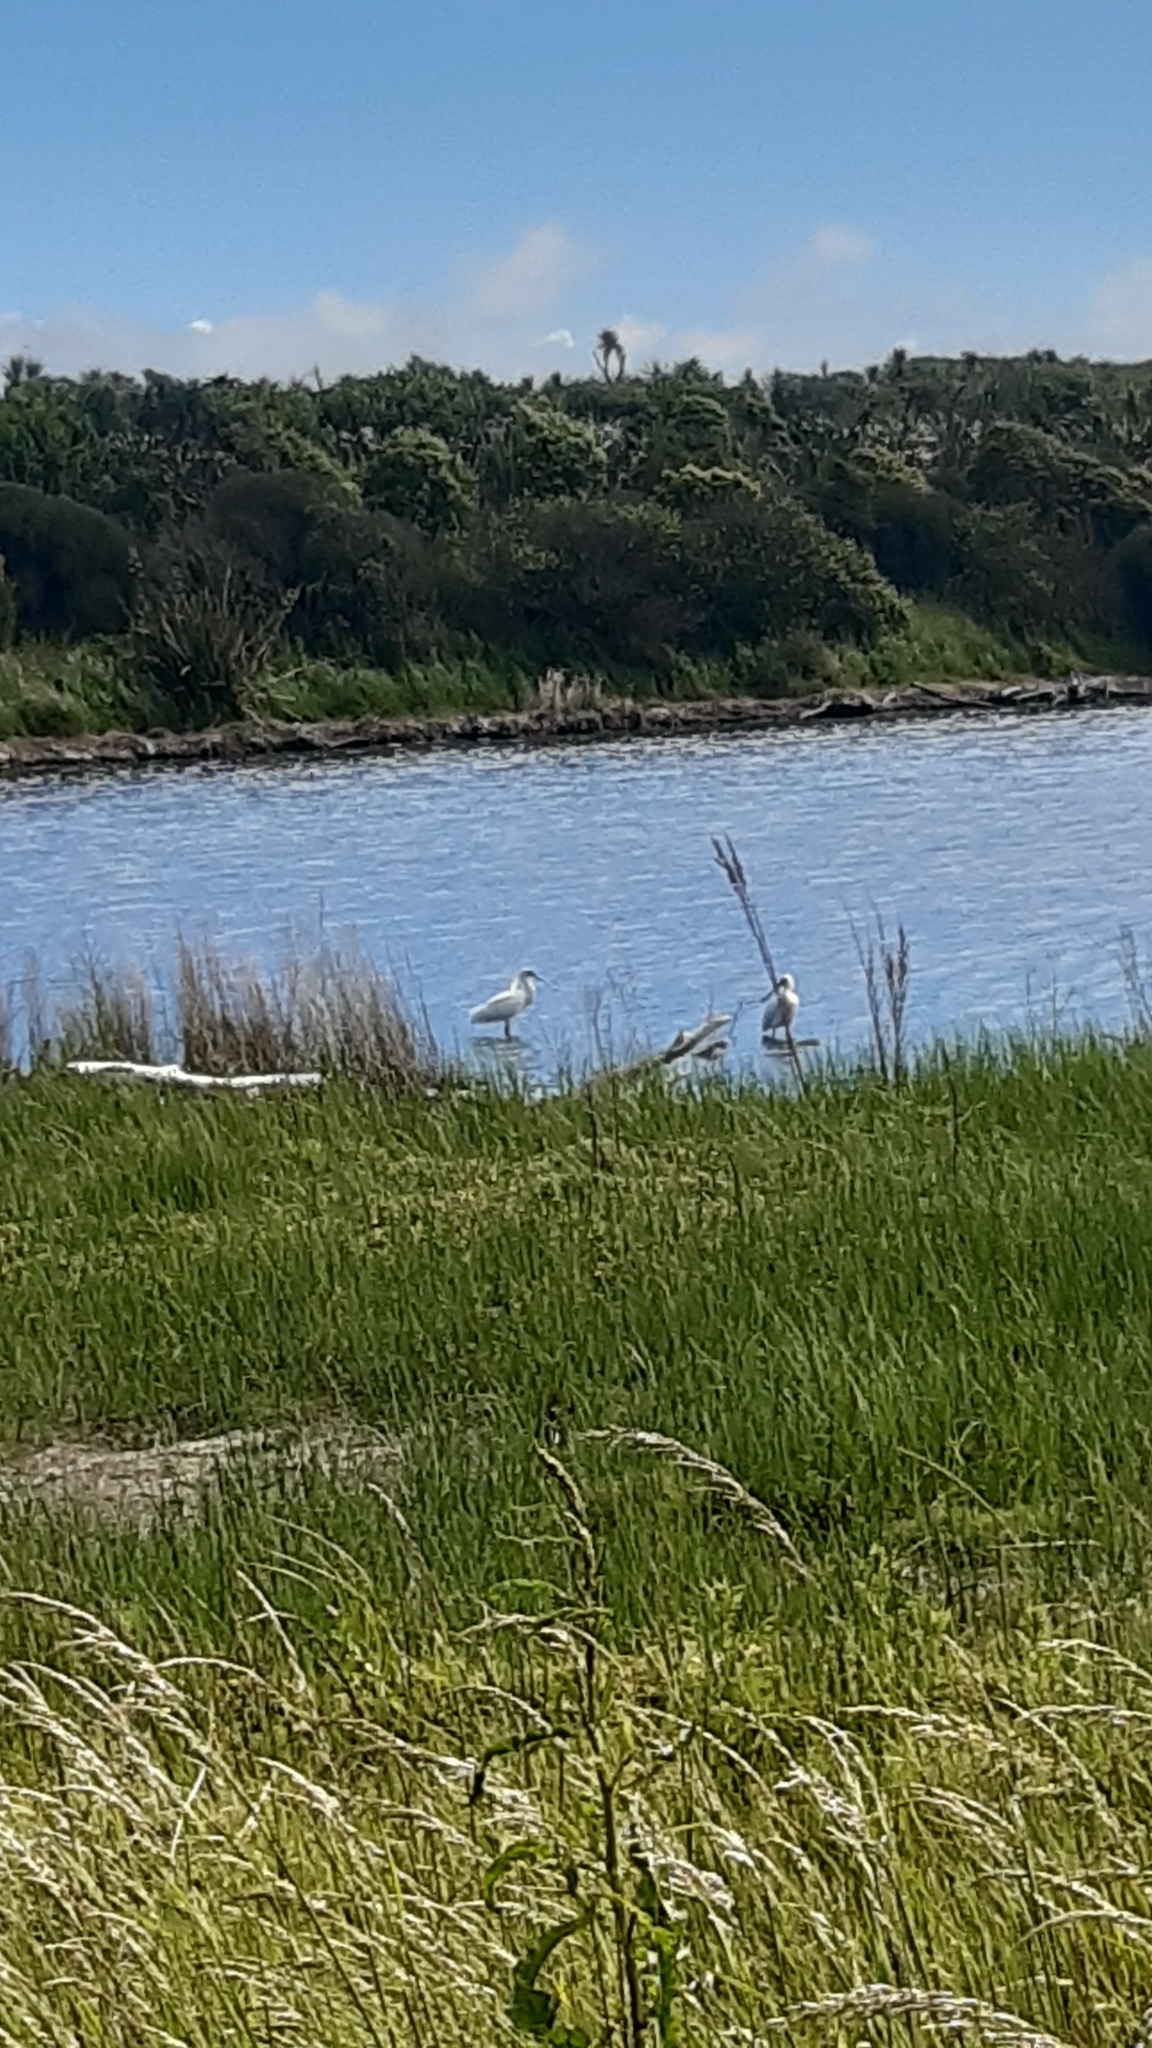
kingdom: Animalia
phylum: Chordata
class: Aves
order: Pelecaniformes
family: Threskiornithidae
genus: Platalea
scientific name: Platalea regia
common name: Royal spoonbill
